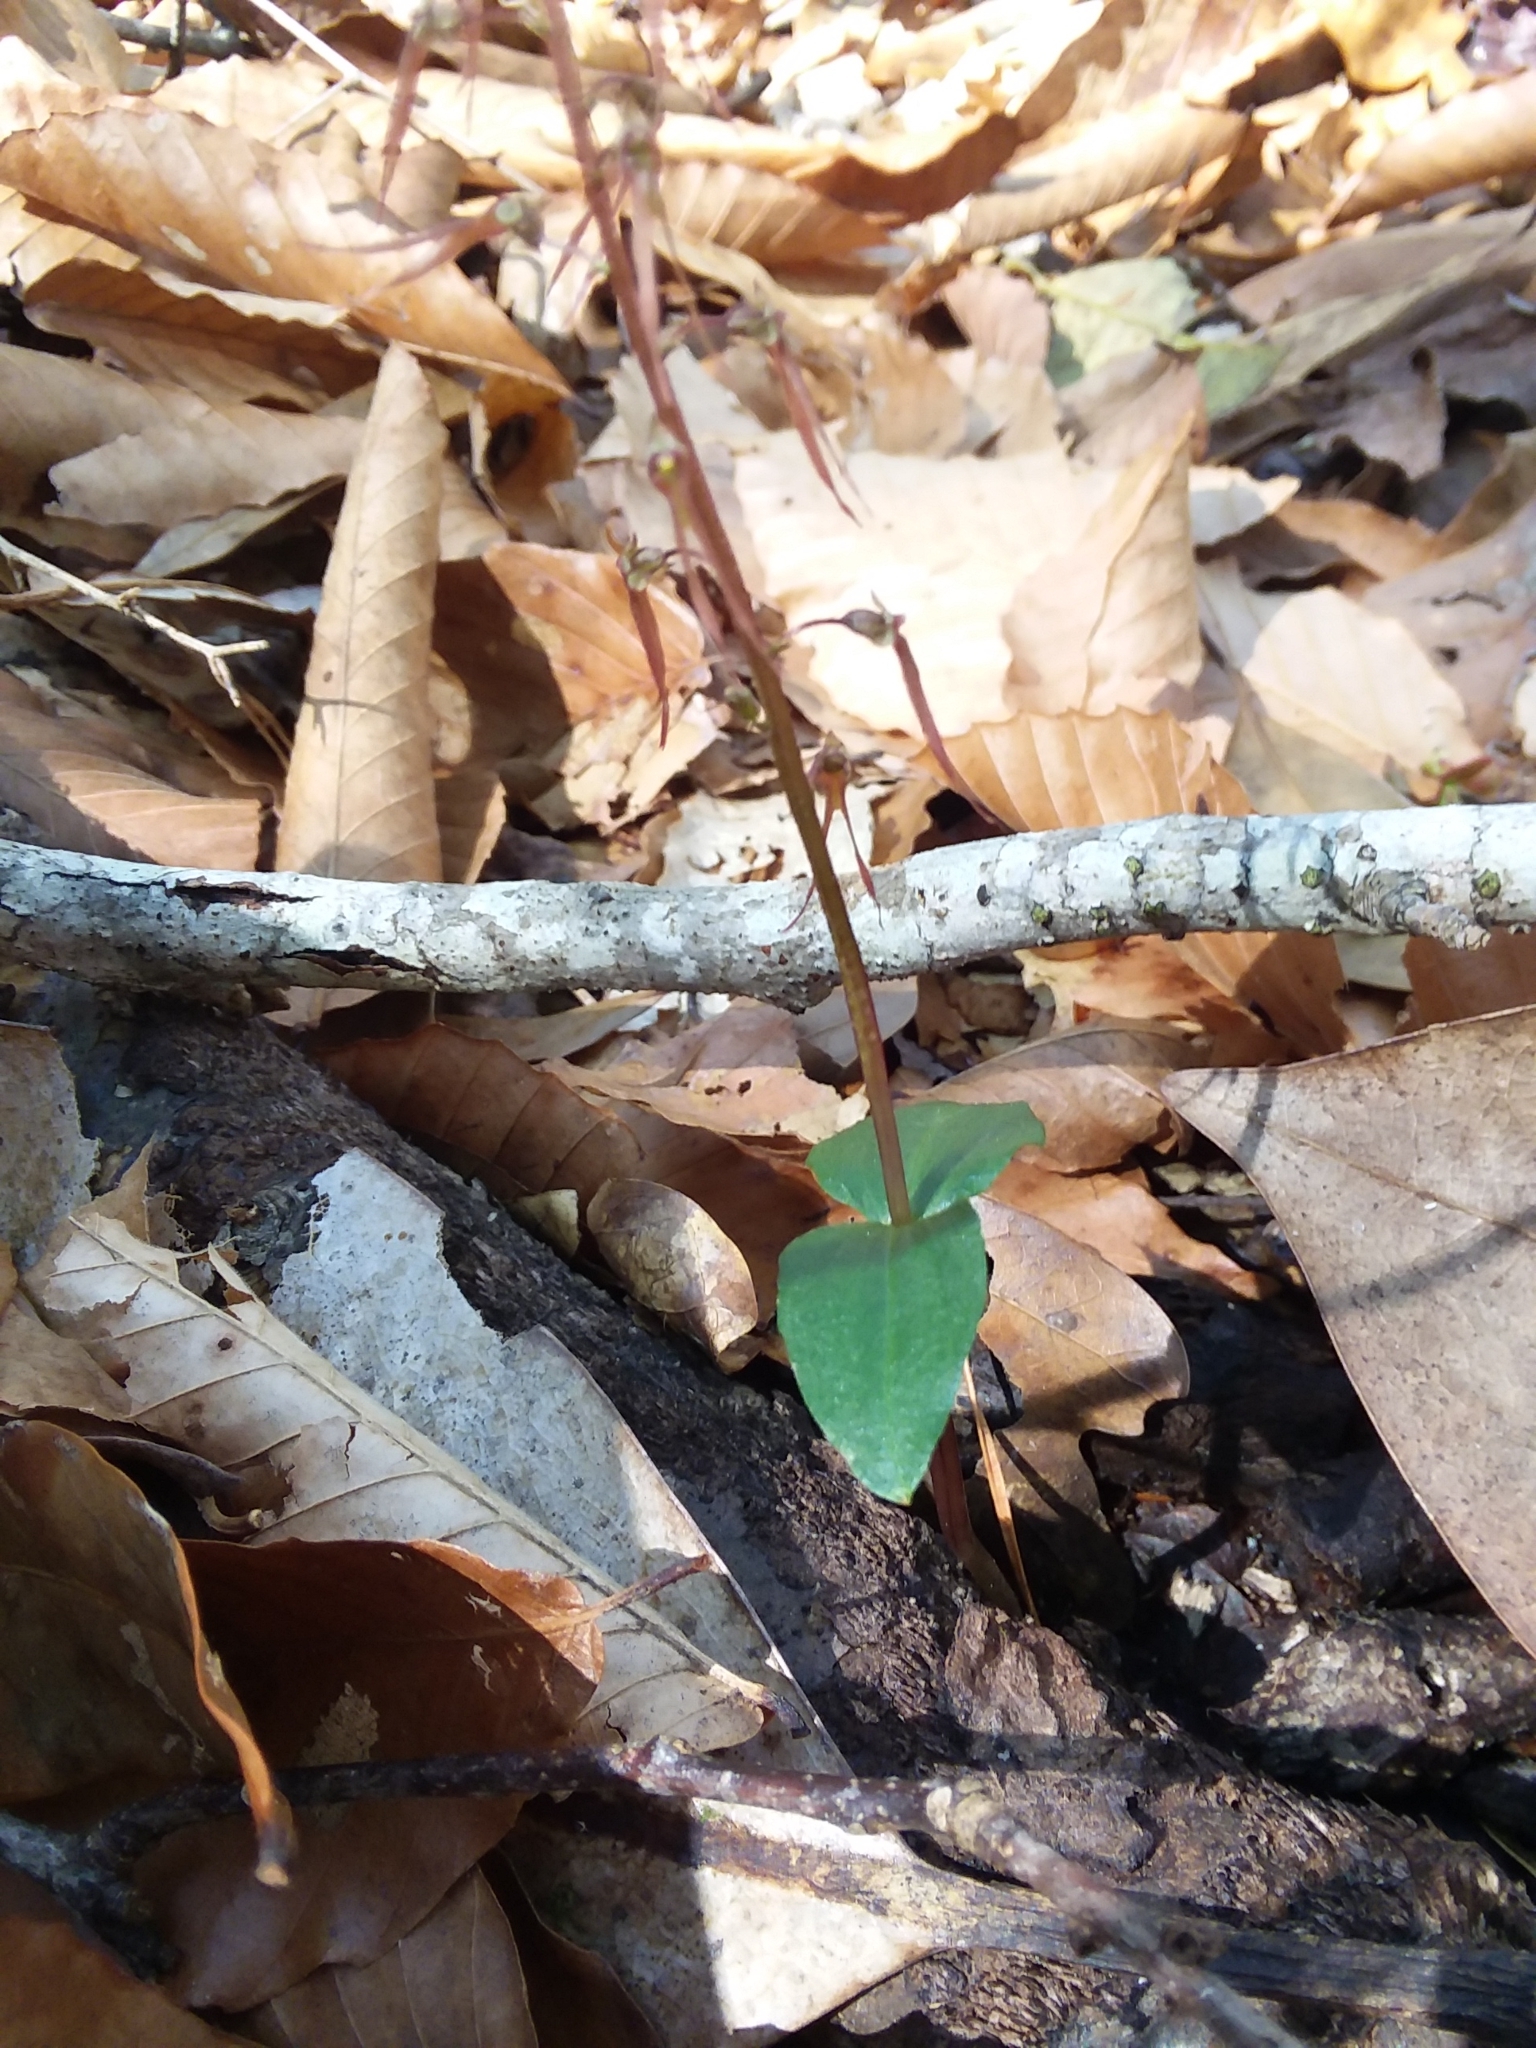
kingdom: Plantae
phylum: Tracheophyta
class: Liliopsida
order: Asparagales
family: Orchidaceae
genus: Neottia
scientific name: Neottia bifolia
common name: Southern twayblade
